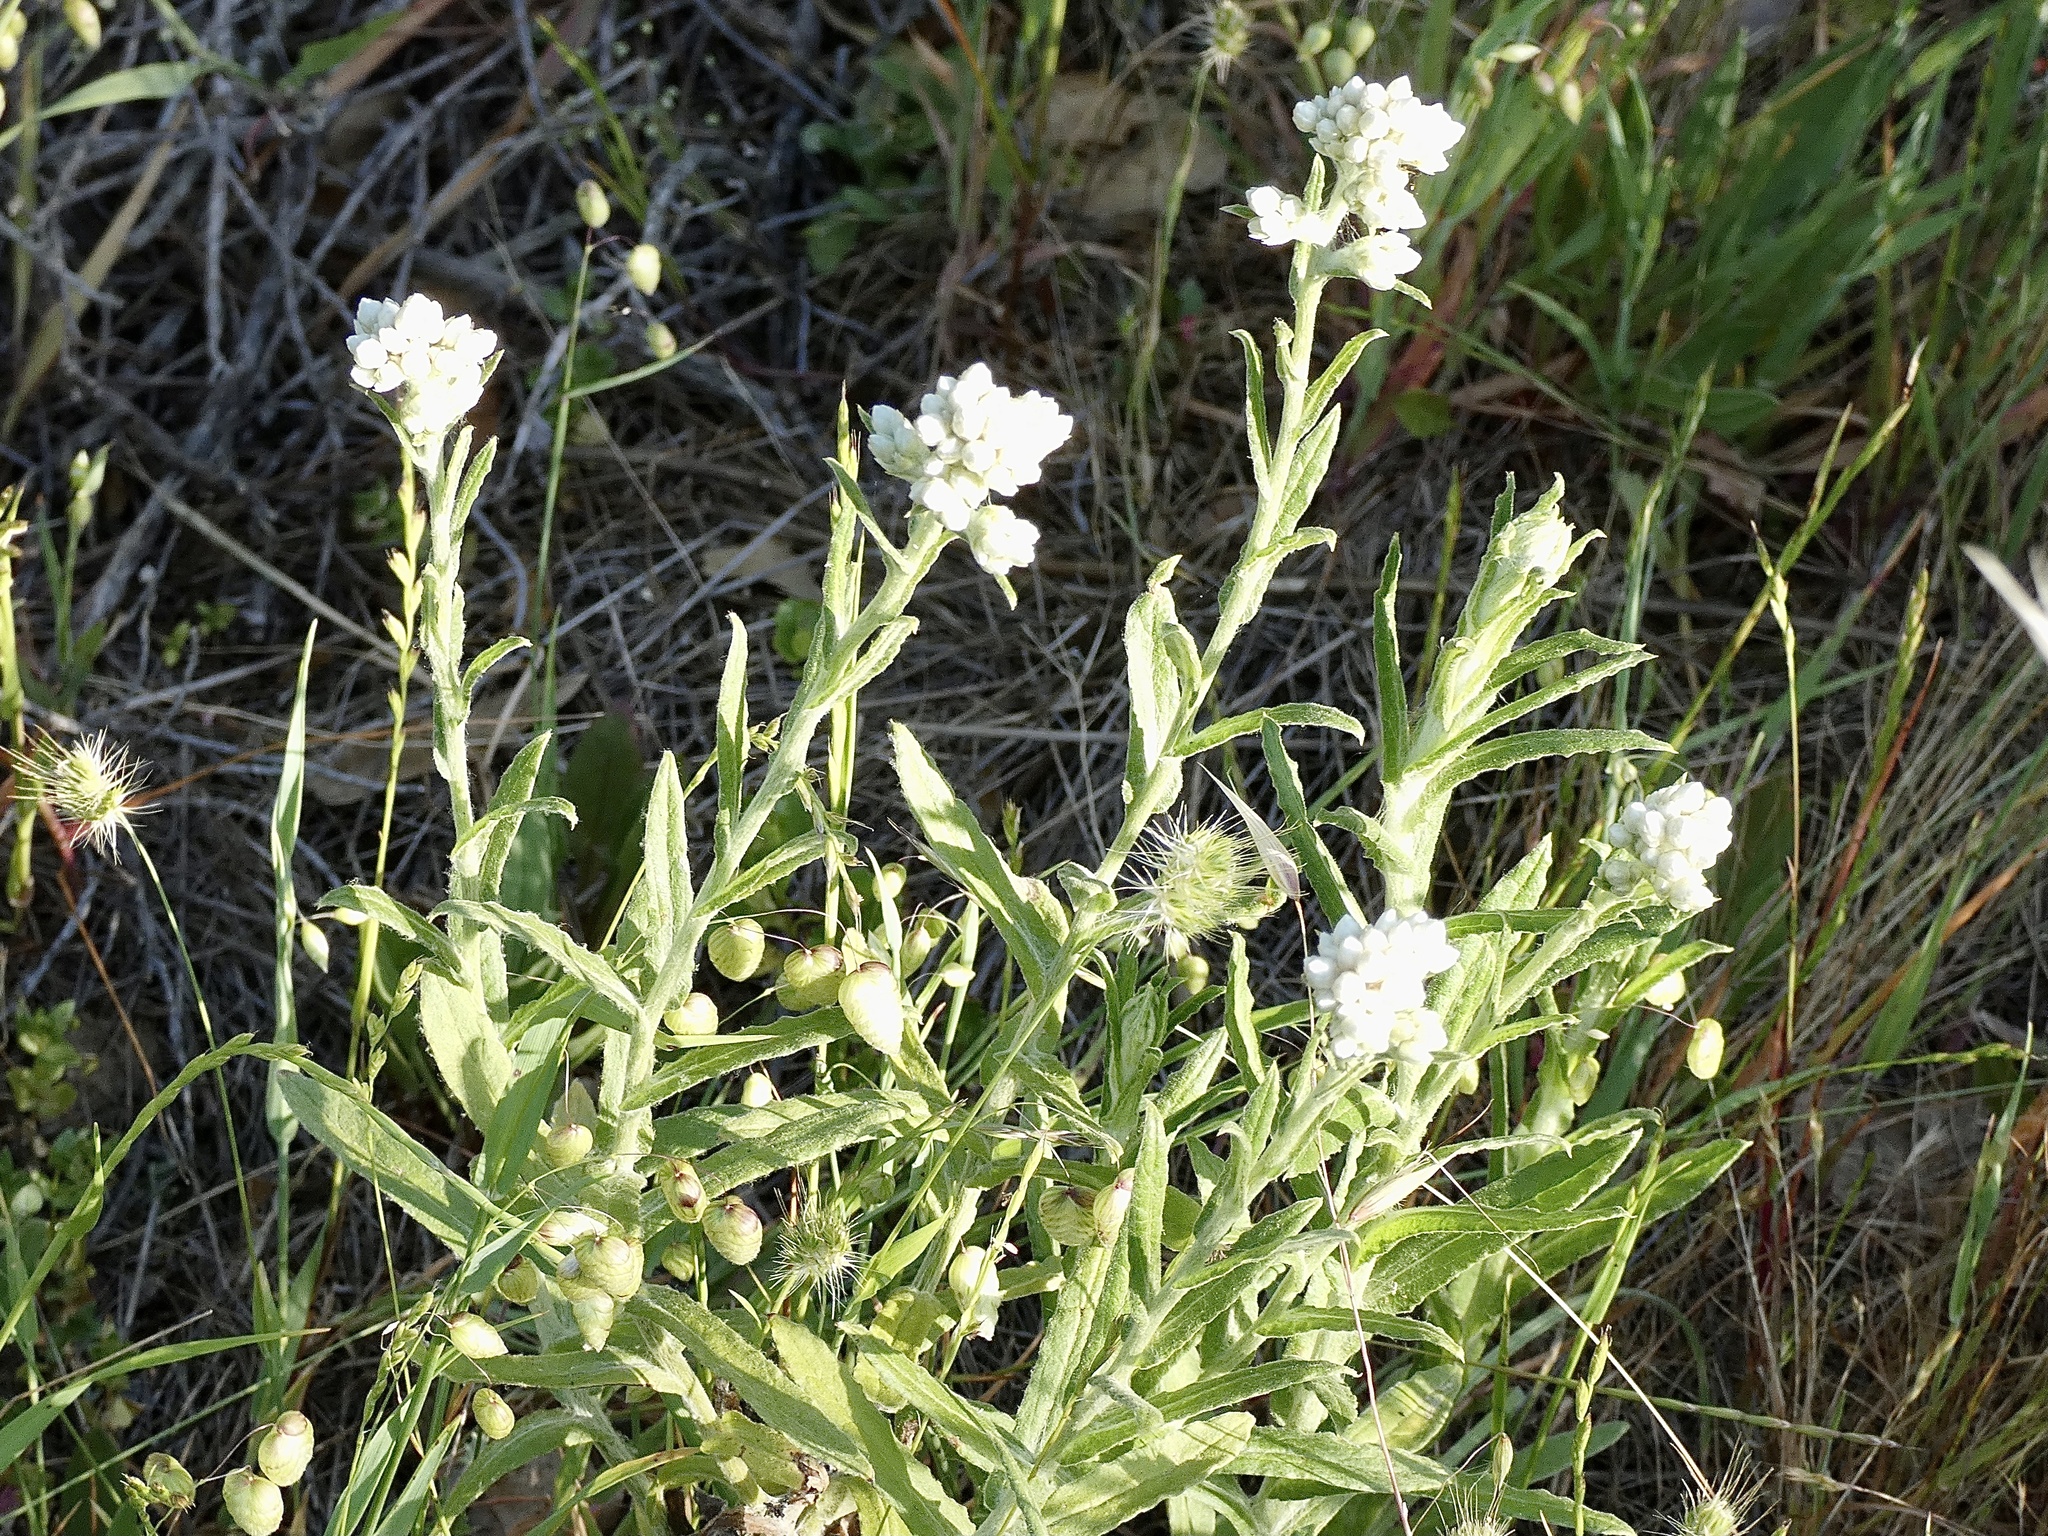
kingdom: Plantae
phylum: Tracheophyta
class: Magnoliopsida
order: Asterales
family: Asteraceae
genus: Pseudognaphalium
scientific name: Pseudognaphalium californicum
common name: California rabbit-tobacco
